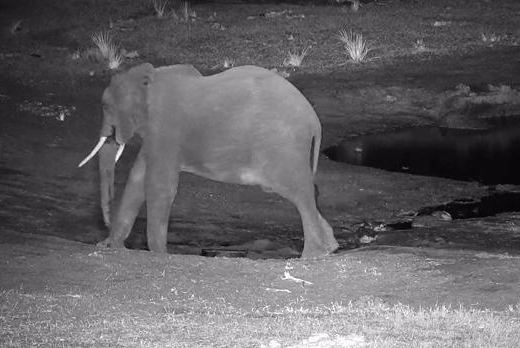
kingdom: Animalia
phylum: Chordata
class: Mammalia
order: Proboscidea
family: Elephantidae
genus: Loxodonta
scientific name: Loxodonta africana
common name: African elephant
